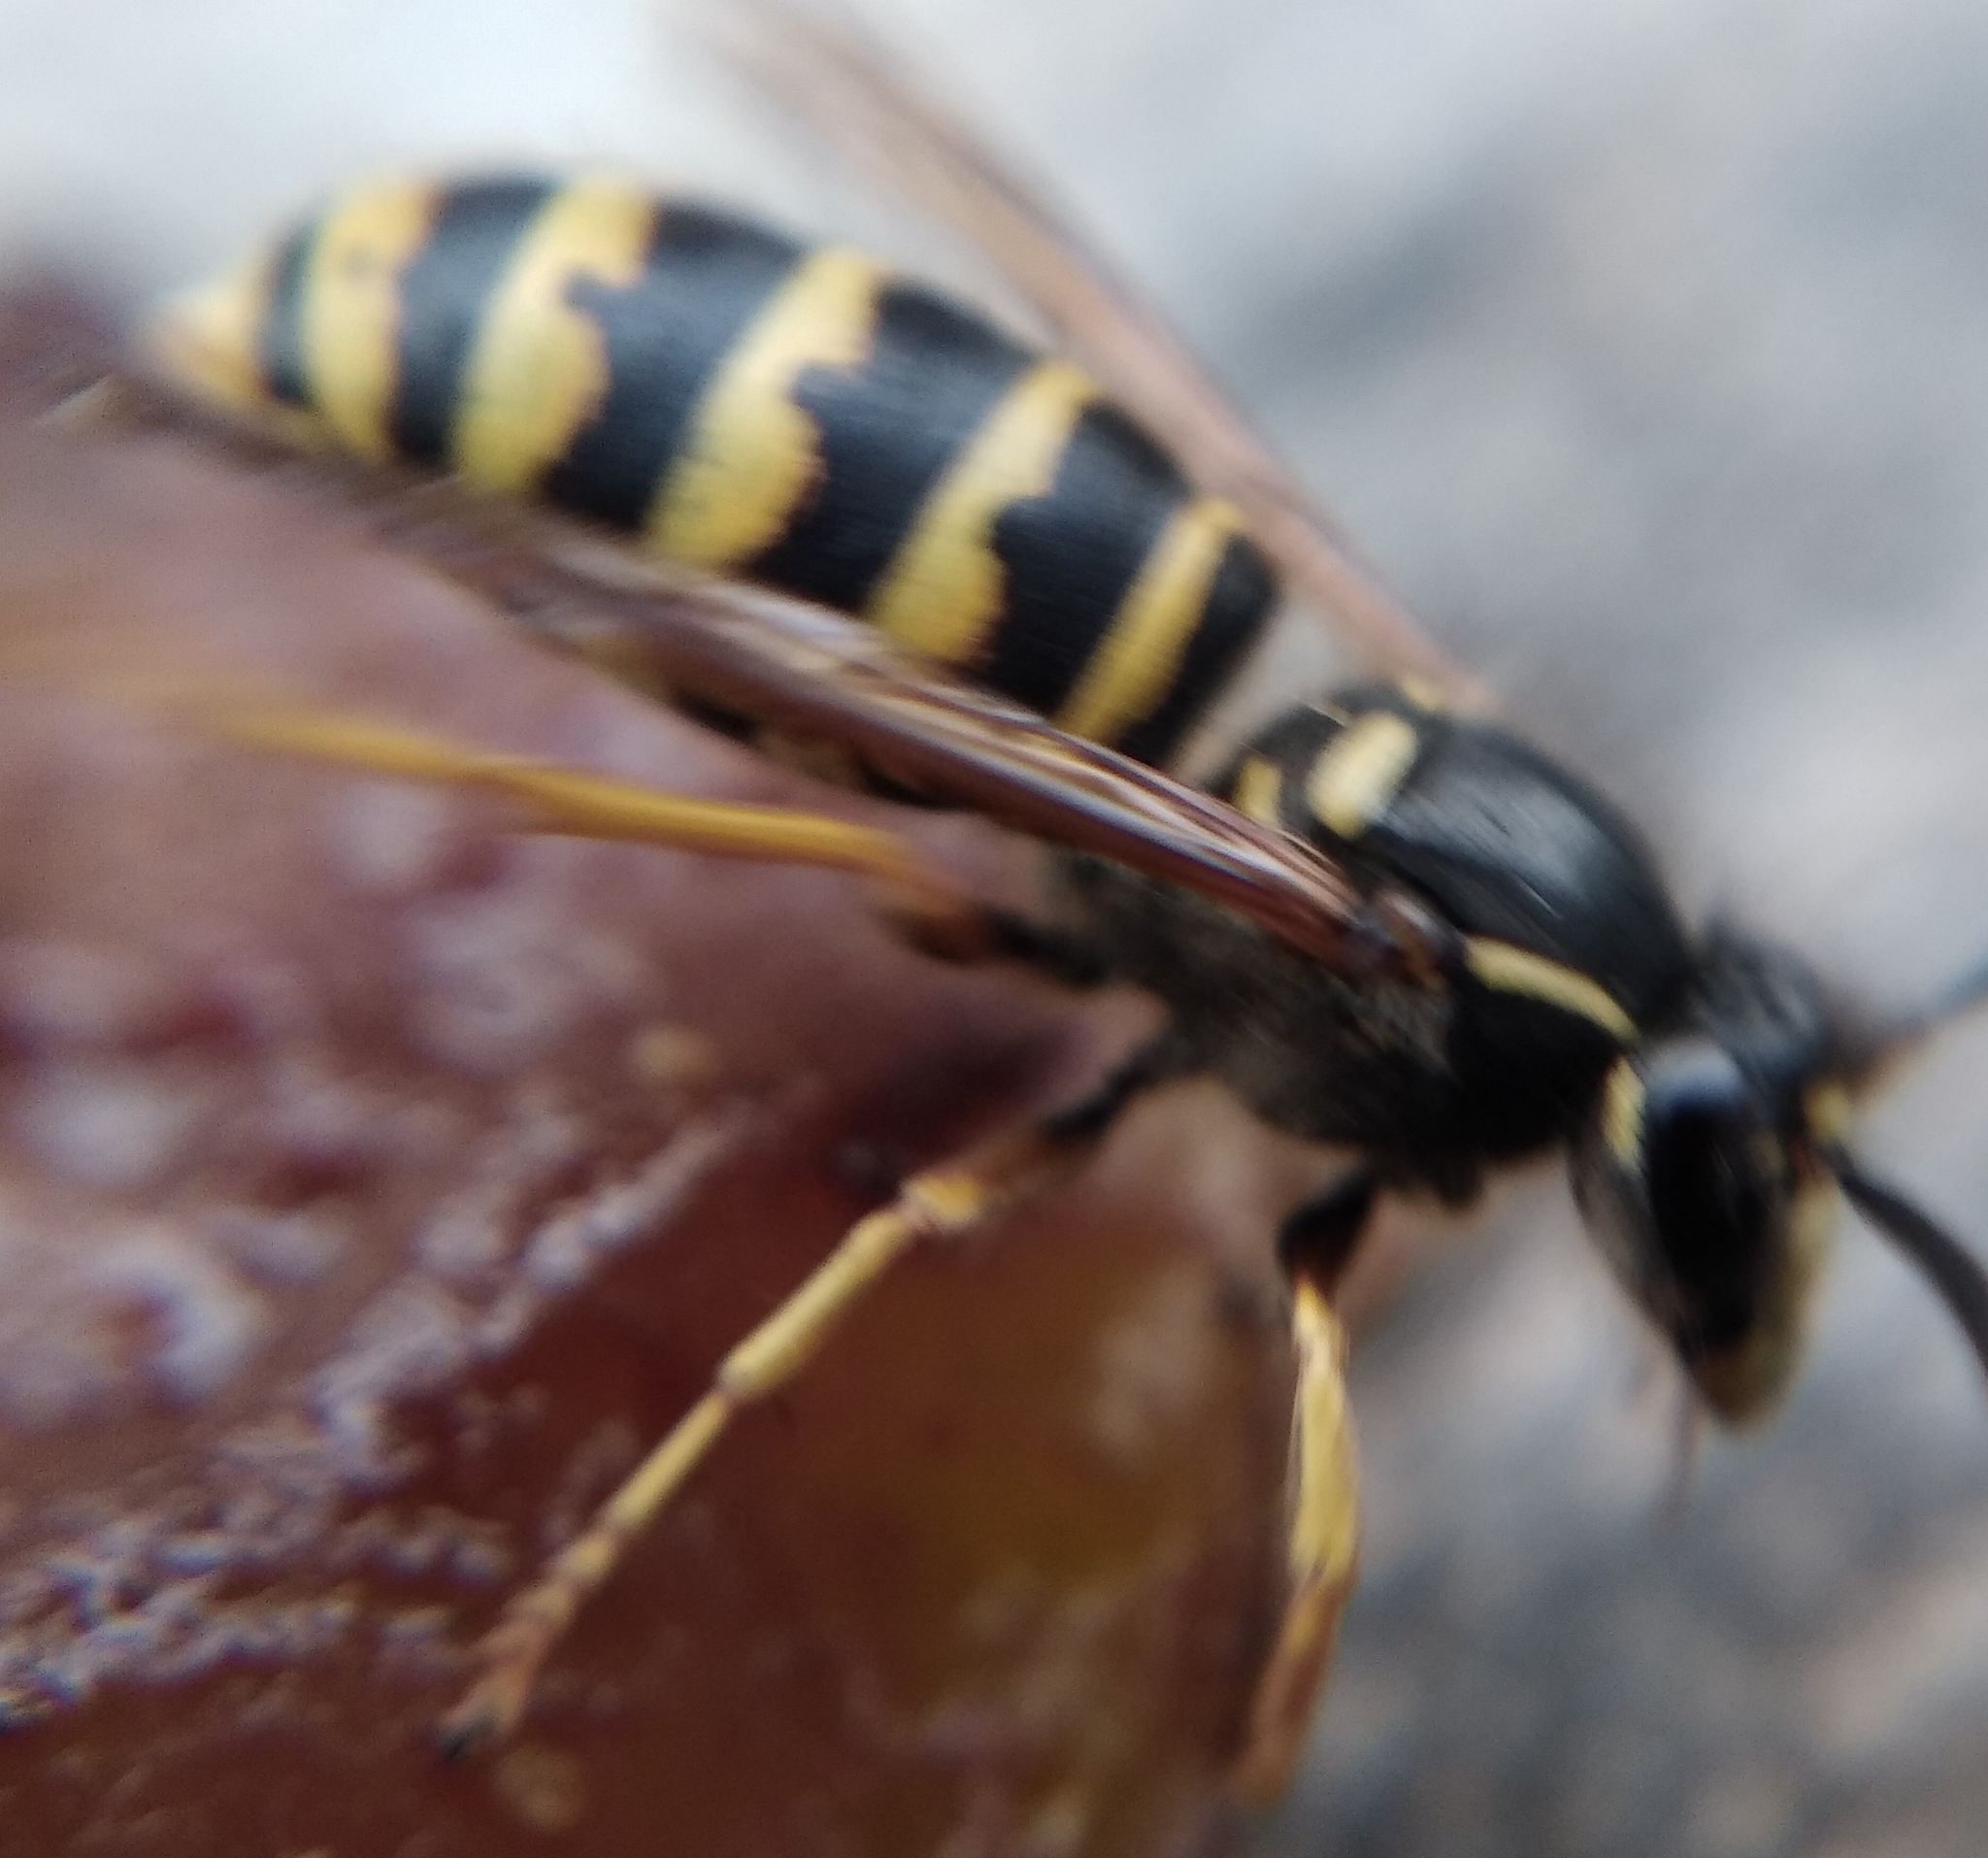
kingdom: Animalia
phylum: Arthropoda
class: Insecta
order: Hymenoptera
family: Vespidae
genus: Dolichovespula
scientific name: Dolichovespula saxonica
